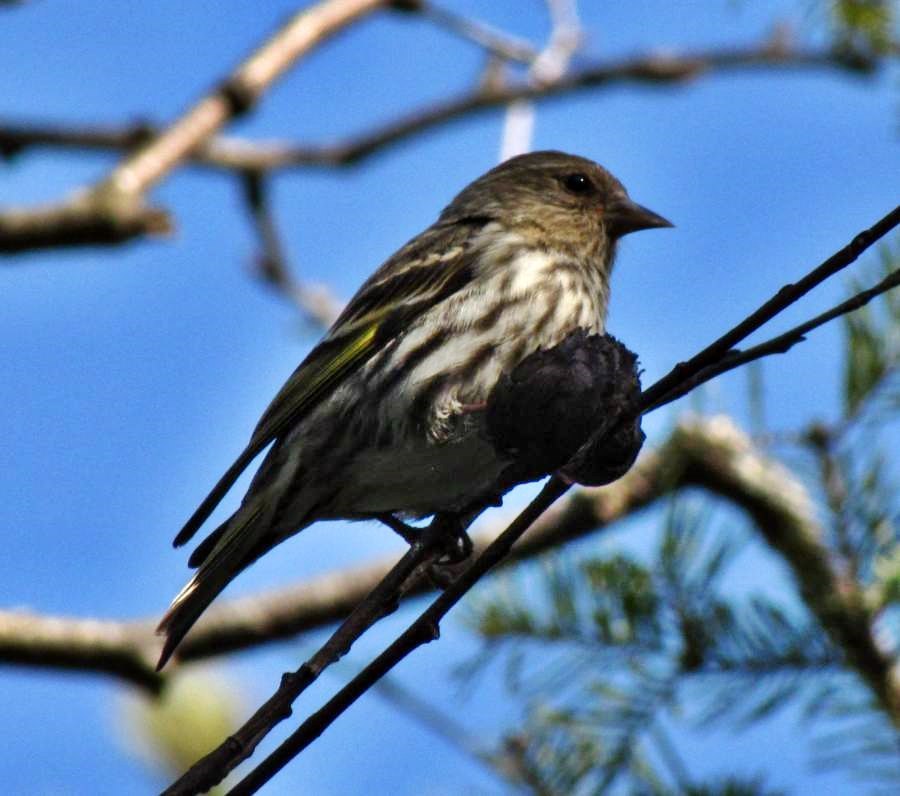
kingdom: Animalia
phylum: Chordata
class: Aves
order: Passeriformes
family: Fringillidae
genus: Spinus
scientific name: Spinus pinus
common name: Pine siskin
